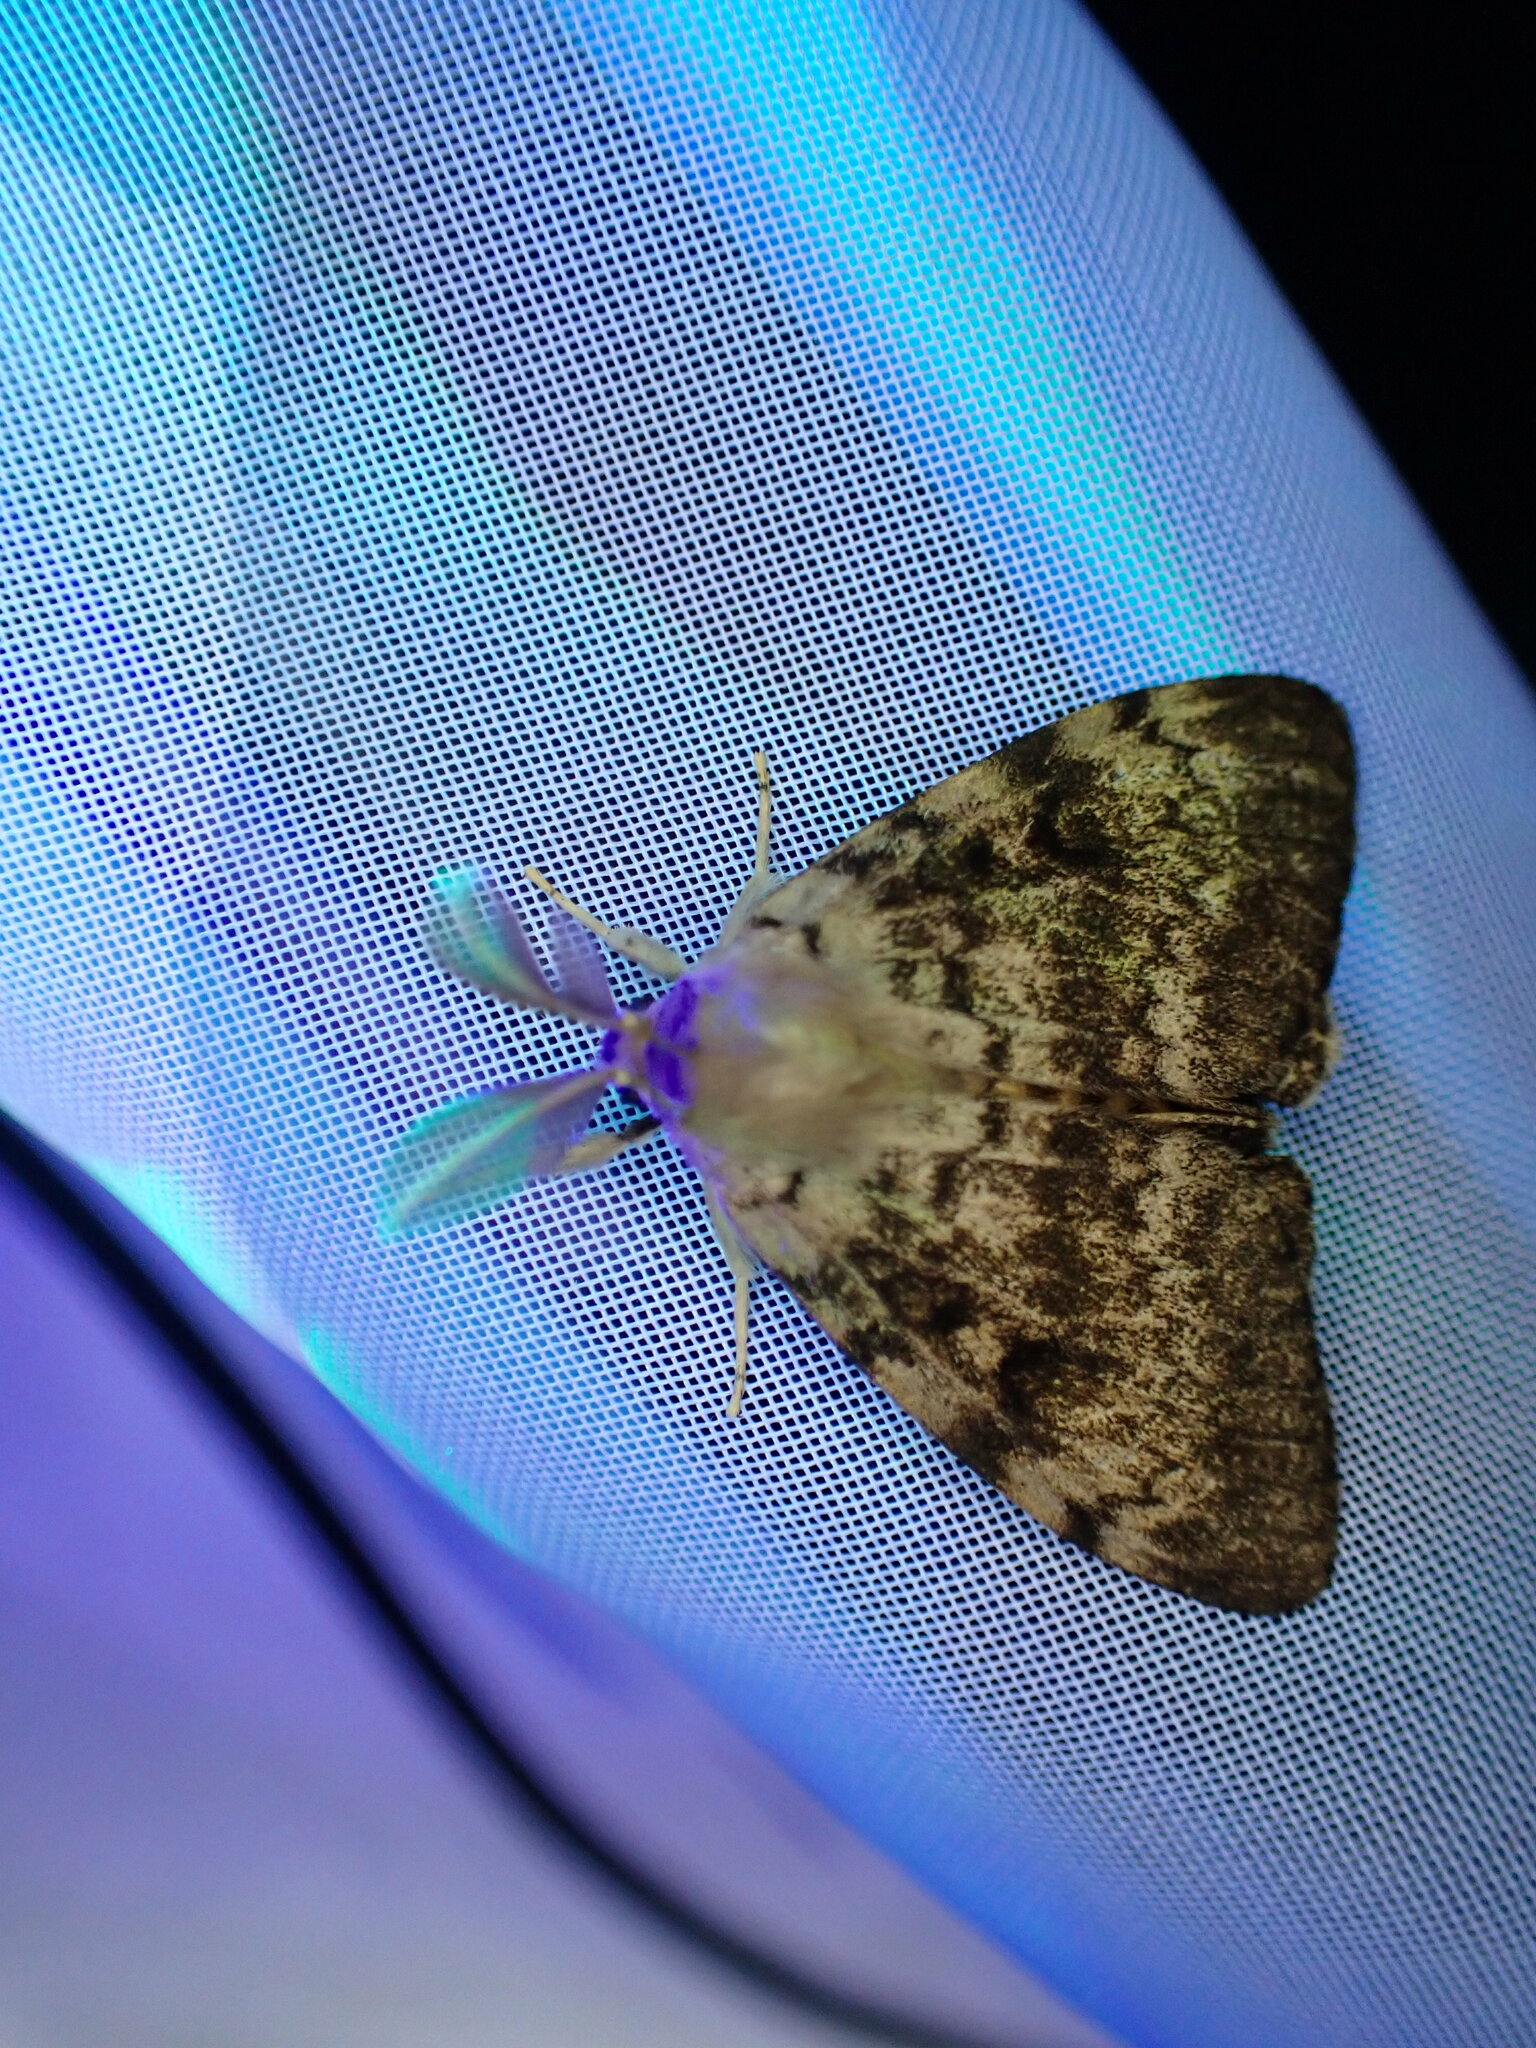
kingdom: Animalia
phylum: Arthropoda
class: Insecta
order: Lepidoptera
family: Erebidae
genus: Lymantria
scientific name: Lymantria dispar
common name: Gypsy moth
